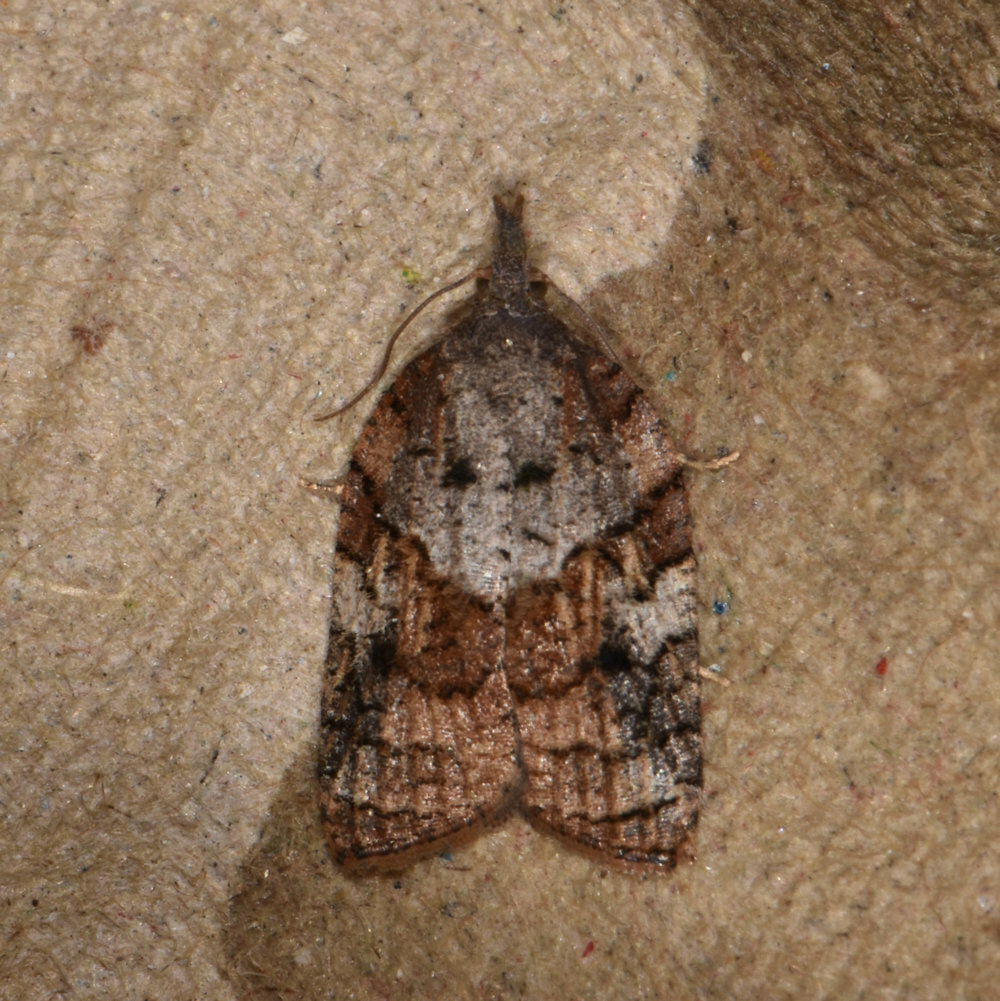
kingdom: Animalia
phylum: Arthropoda
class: Insecta
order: Lepidoptera
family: Tortricidae
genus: Platynota
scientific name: Platynota idaeusalis
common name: Tufted apple bud moth
